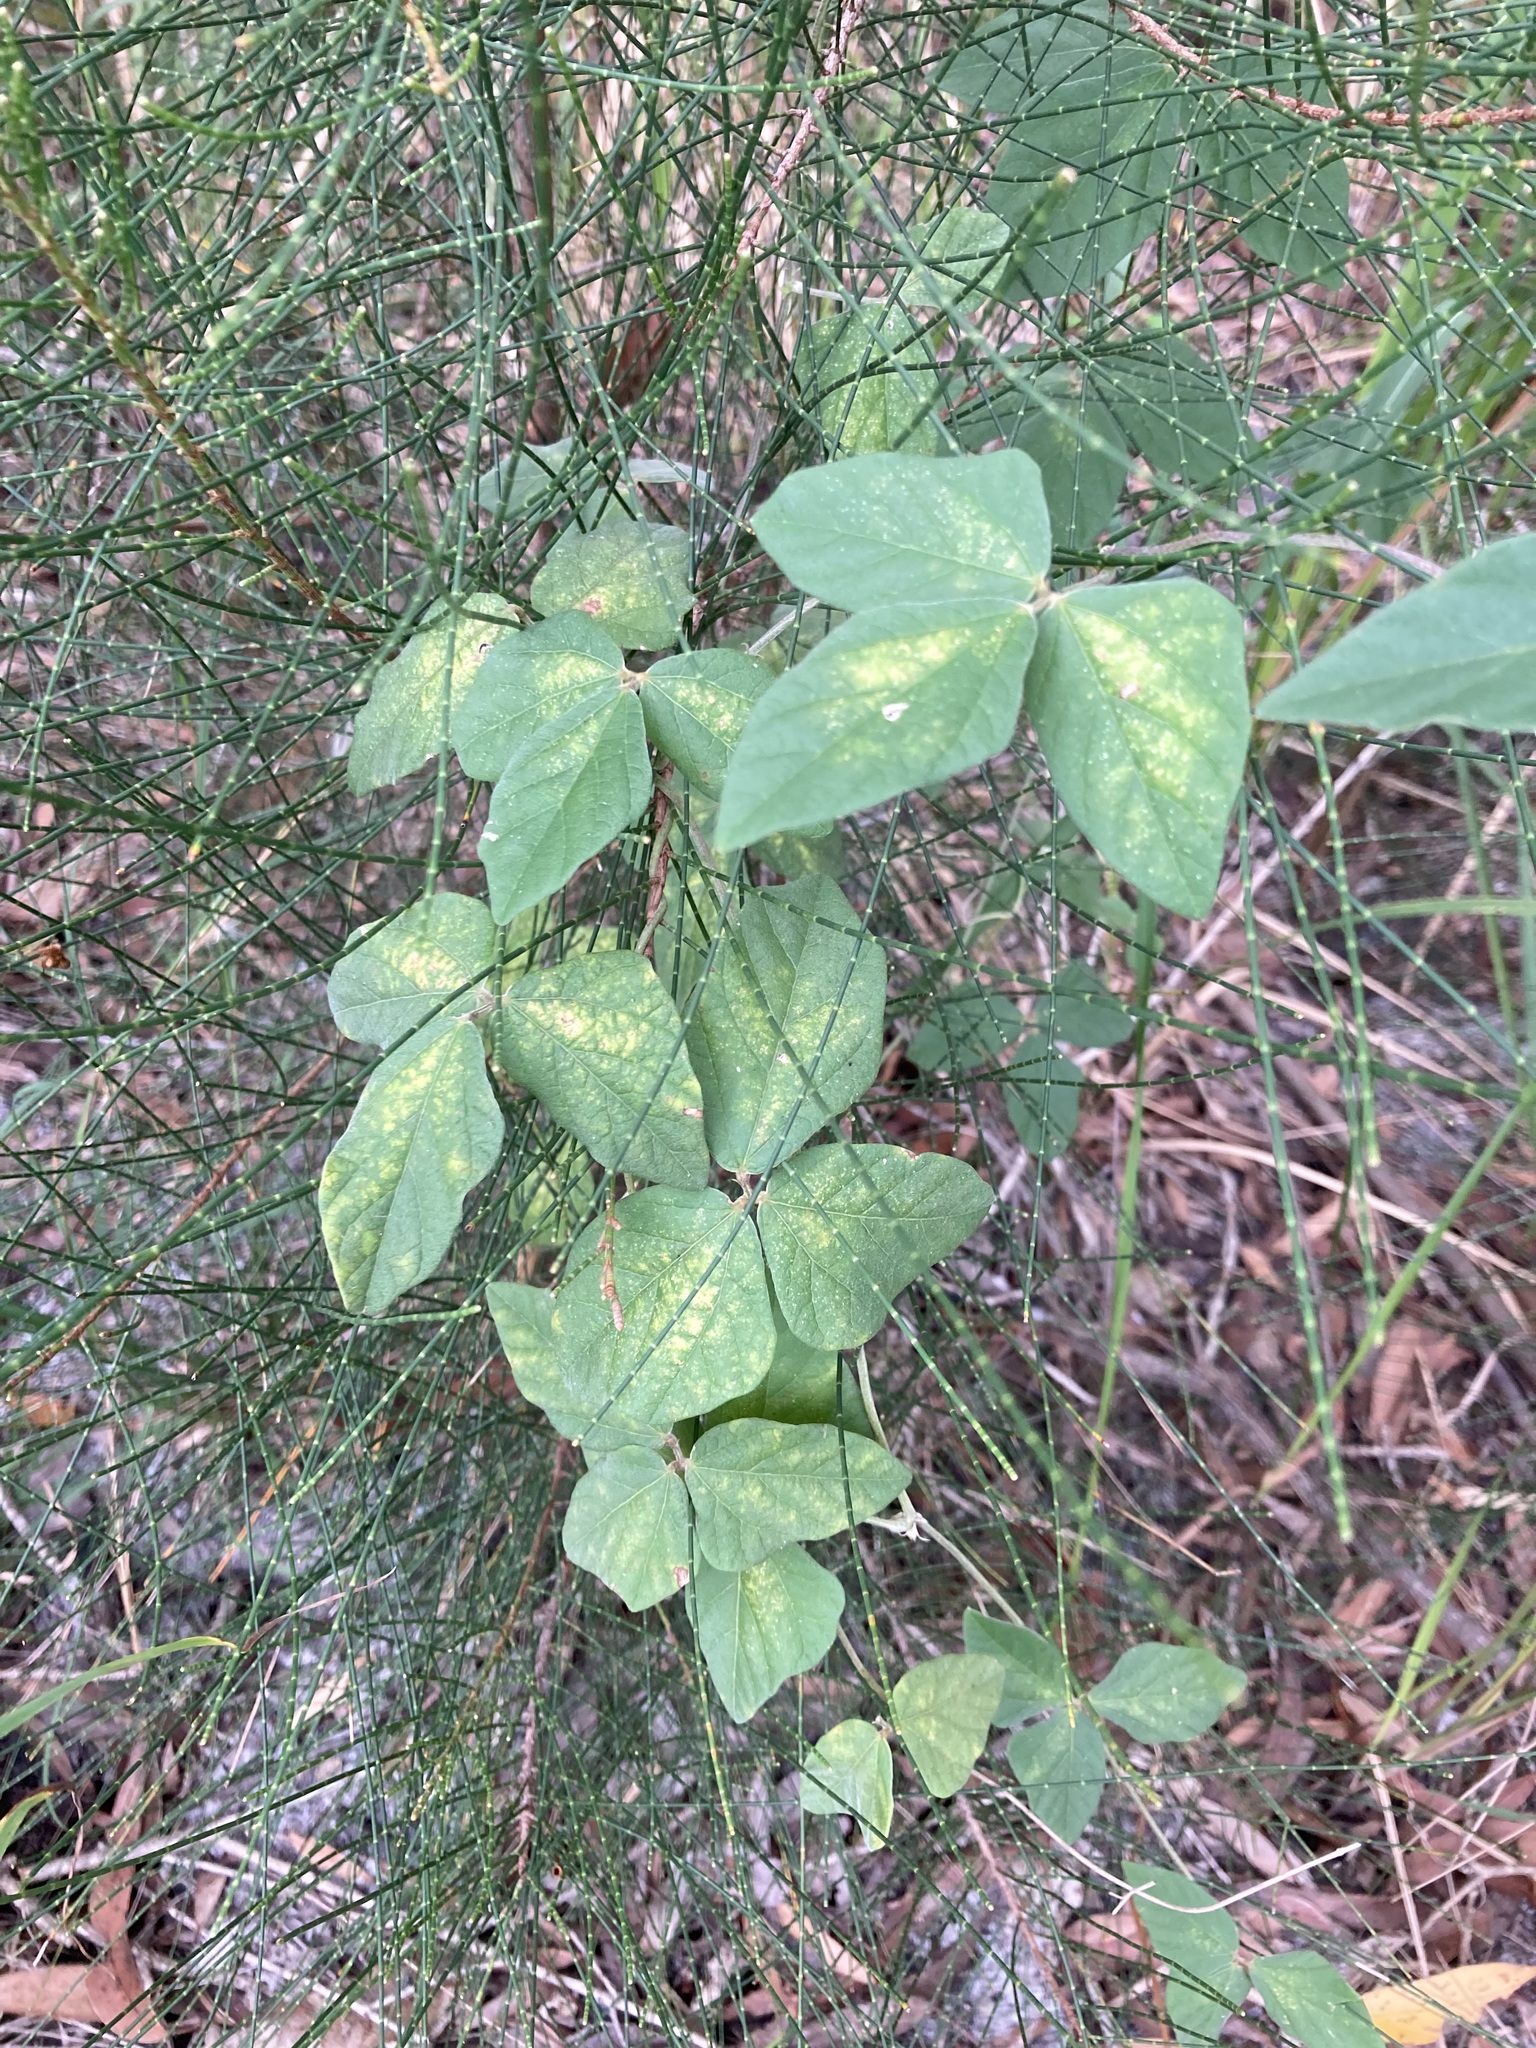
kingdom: Plantae
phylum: Tracheophyta
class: Magnoliopsida
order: Fabales
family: Fabaceae
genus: Macroptilium
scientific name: Macroptilium atropurpureum
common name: Purple bushbean
